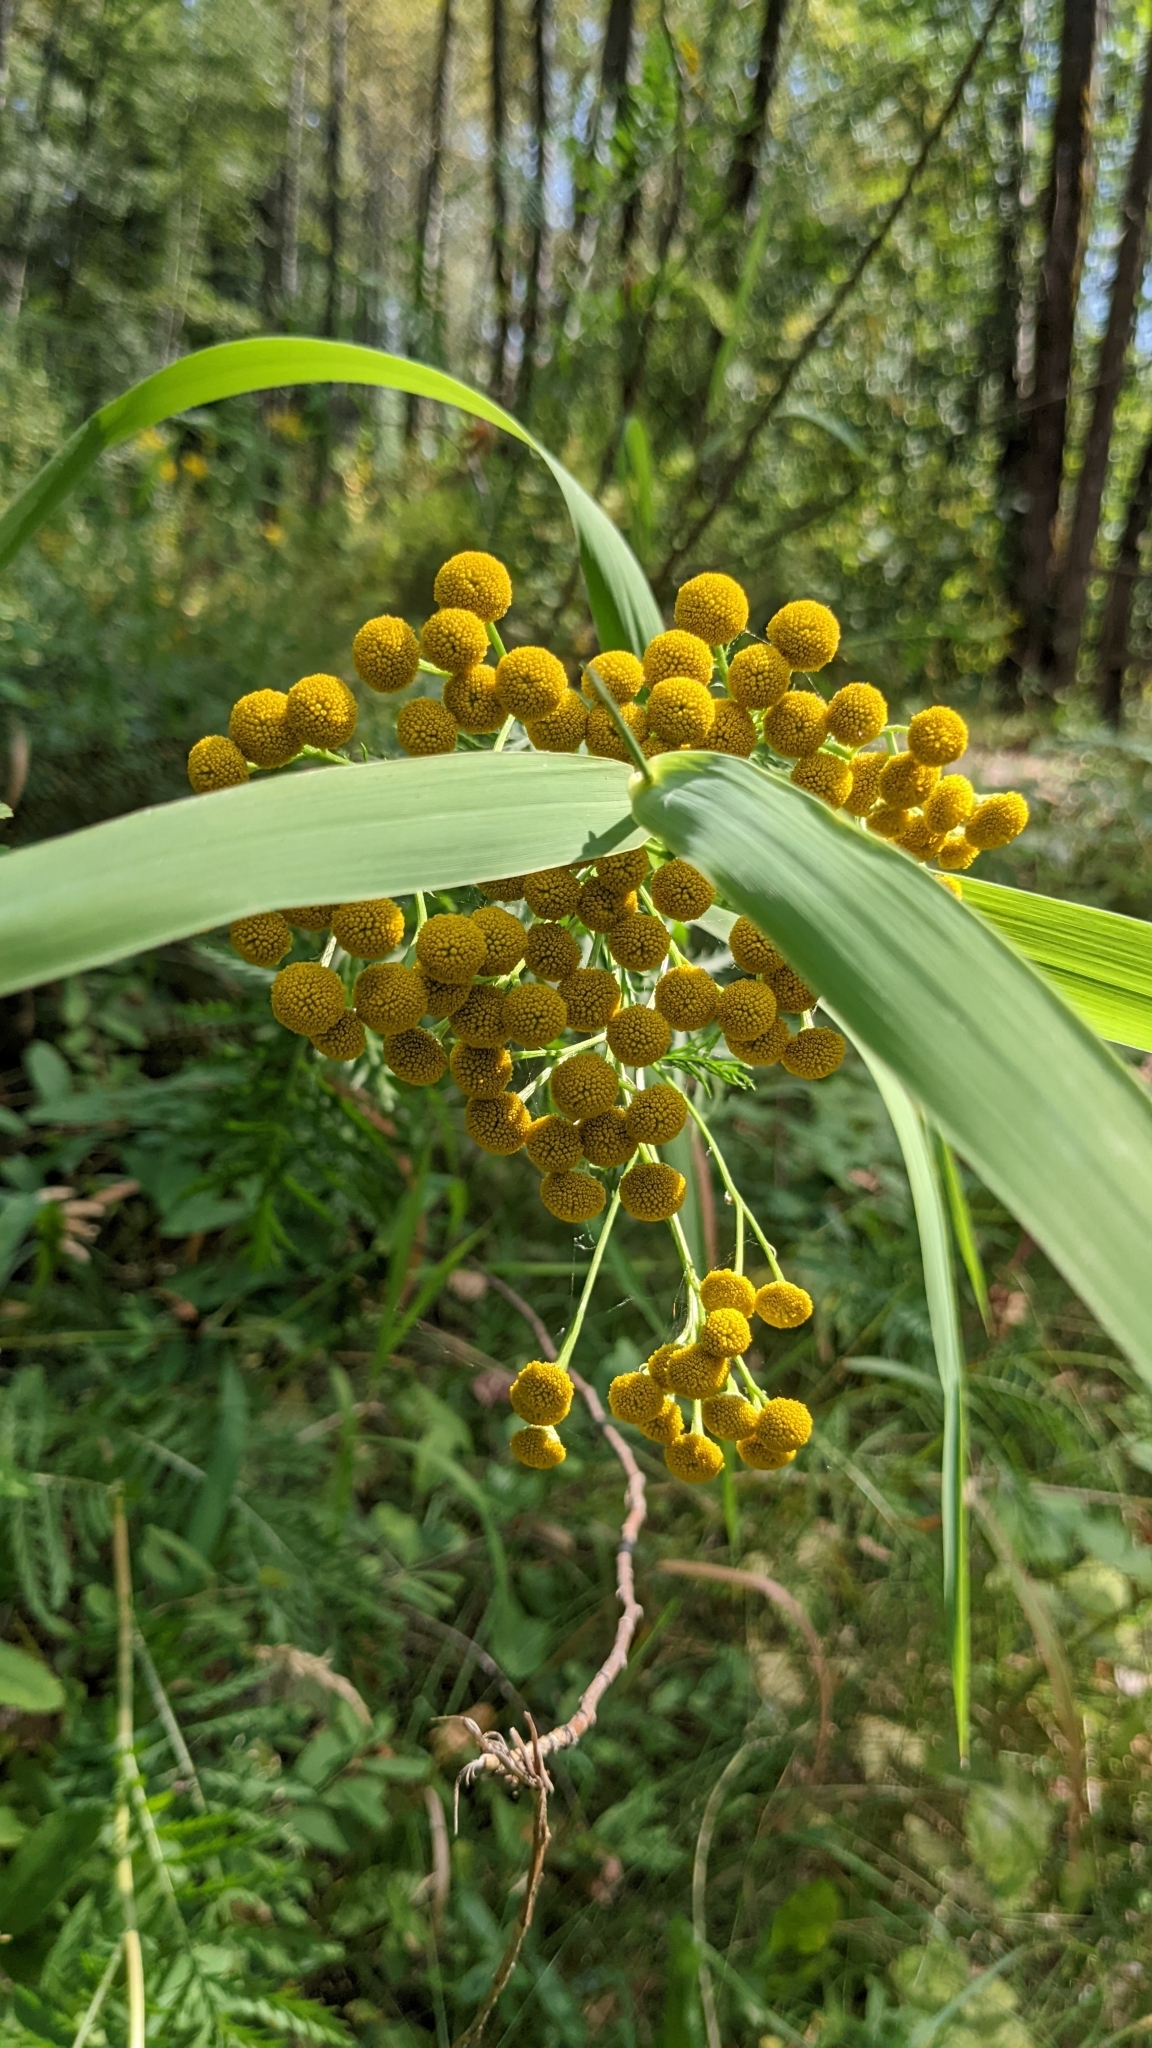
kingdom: Plantae
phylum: Tracheophyta
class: Magnoliopsida
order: Asterales
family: Asteraceae
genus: Tanacetum
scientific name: Tanacetum vulgare
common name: Common tansy
